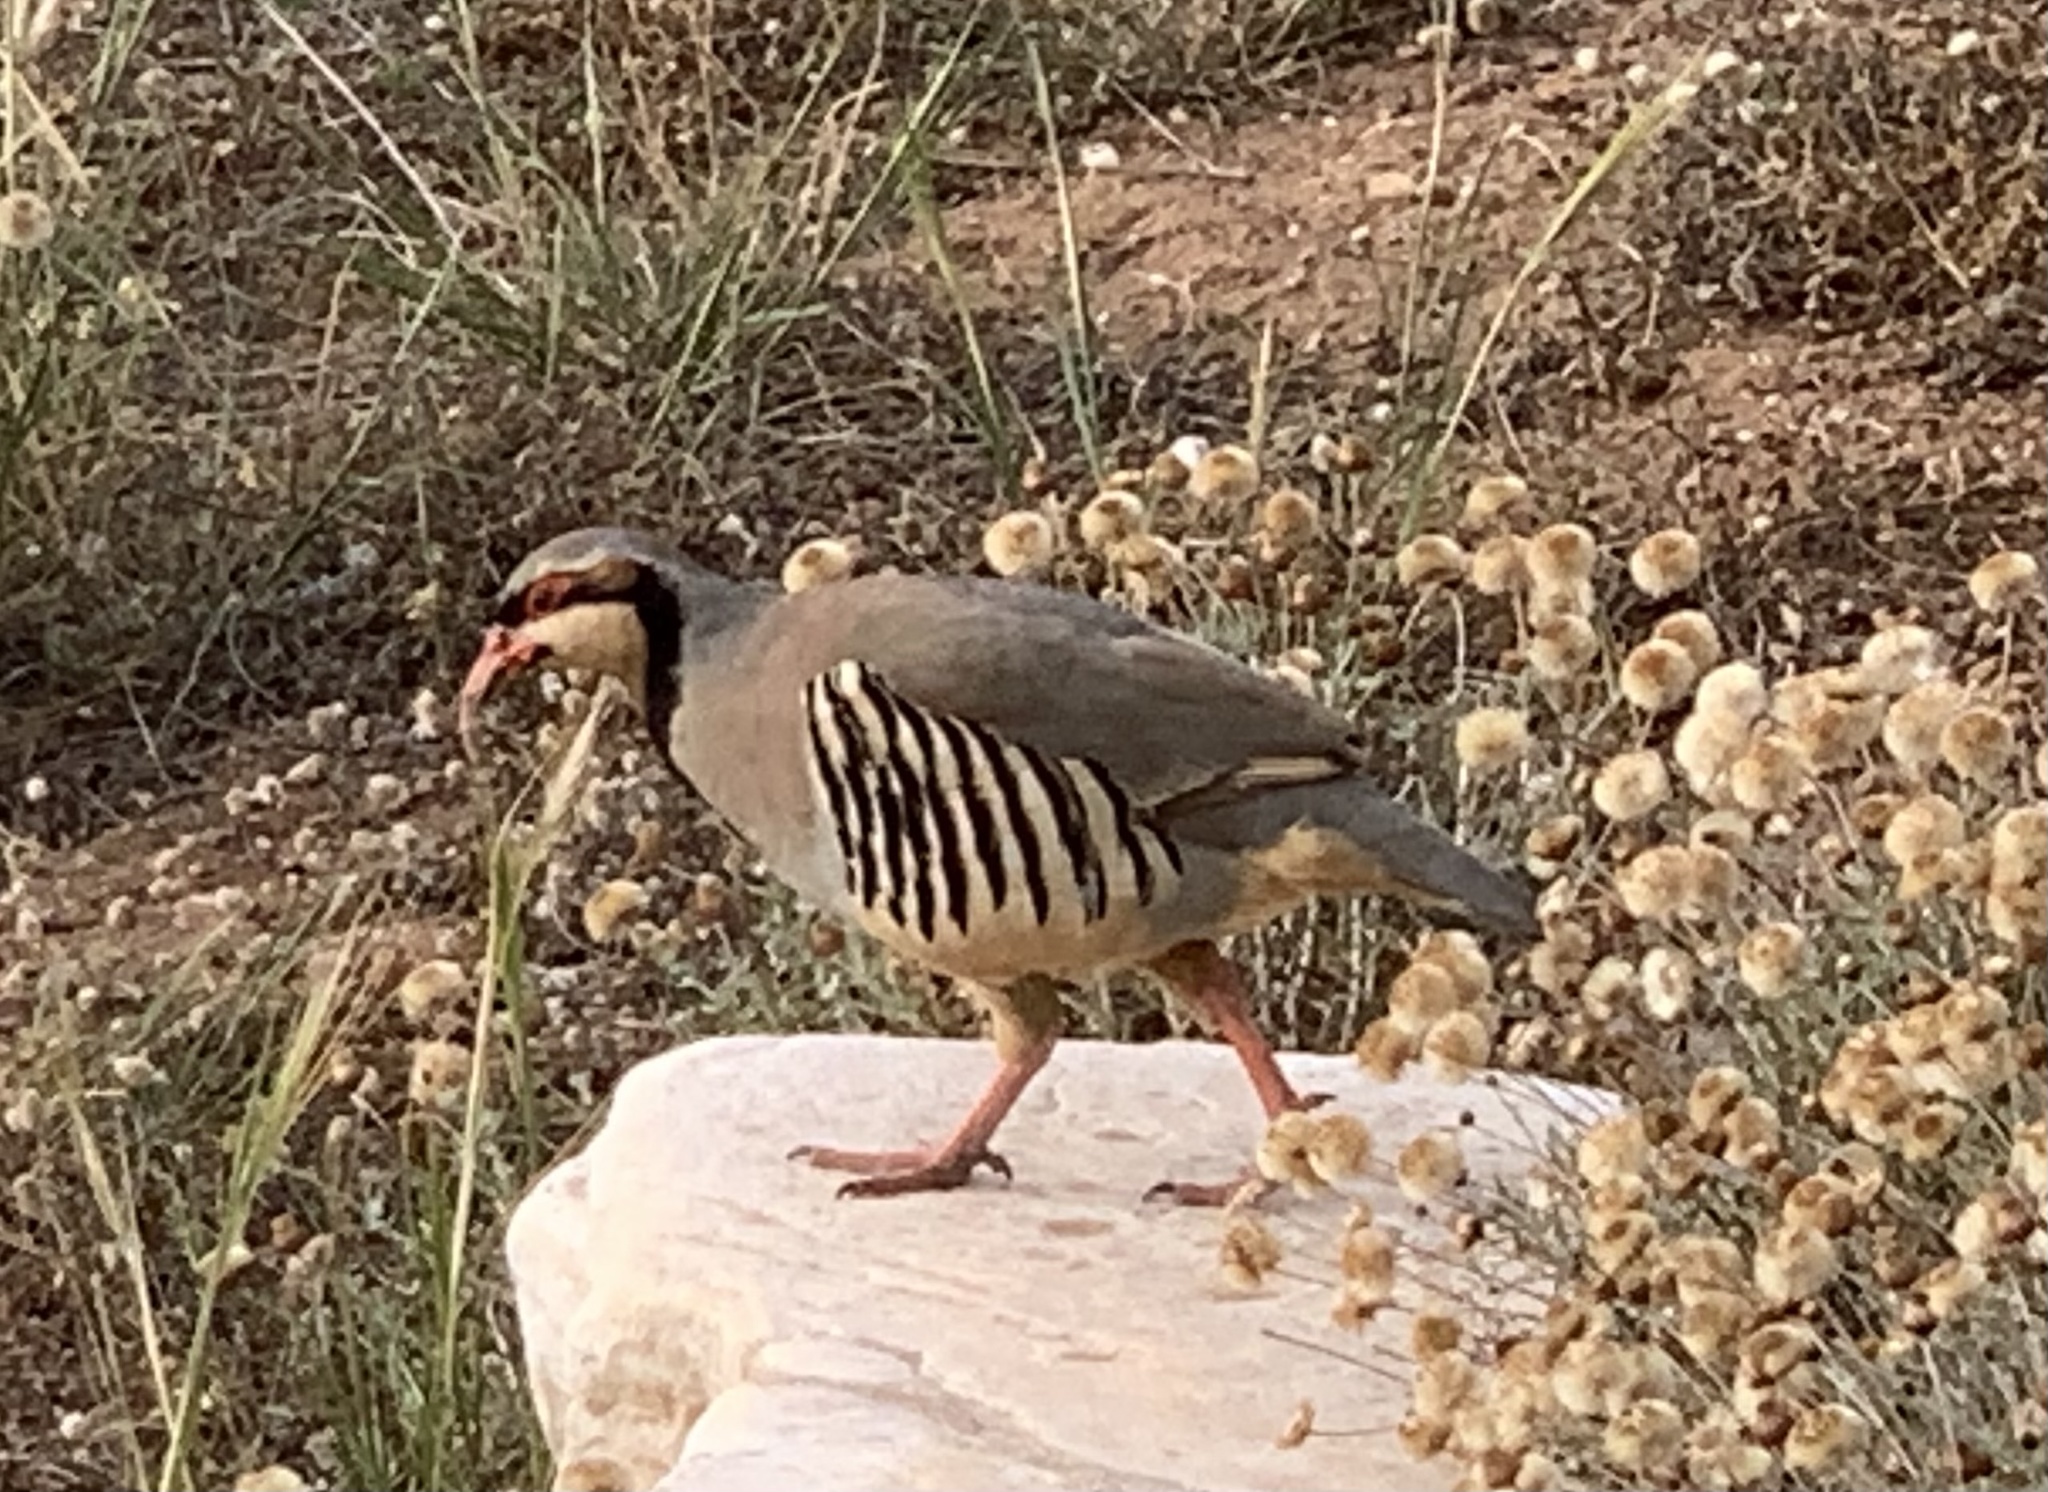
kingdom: Animalia
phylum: Chordata
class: Aves
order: Galliformes
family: Phasianidae
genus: Alectoris
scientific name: Alectoris chukar
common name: Chukar
